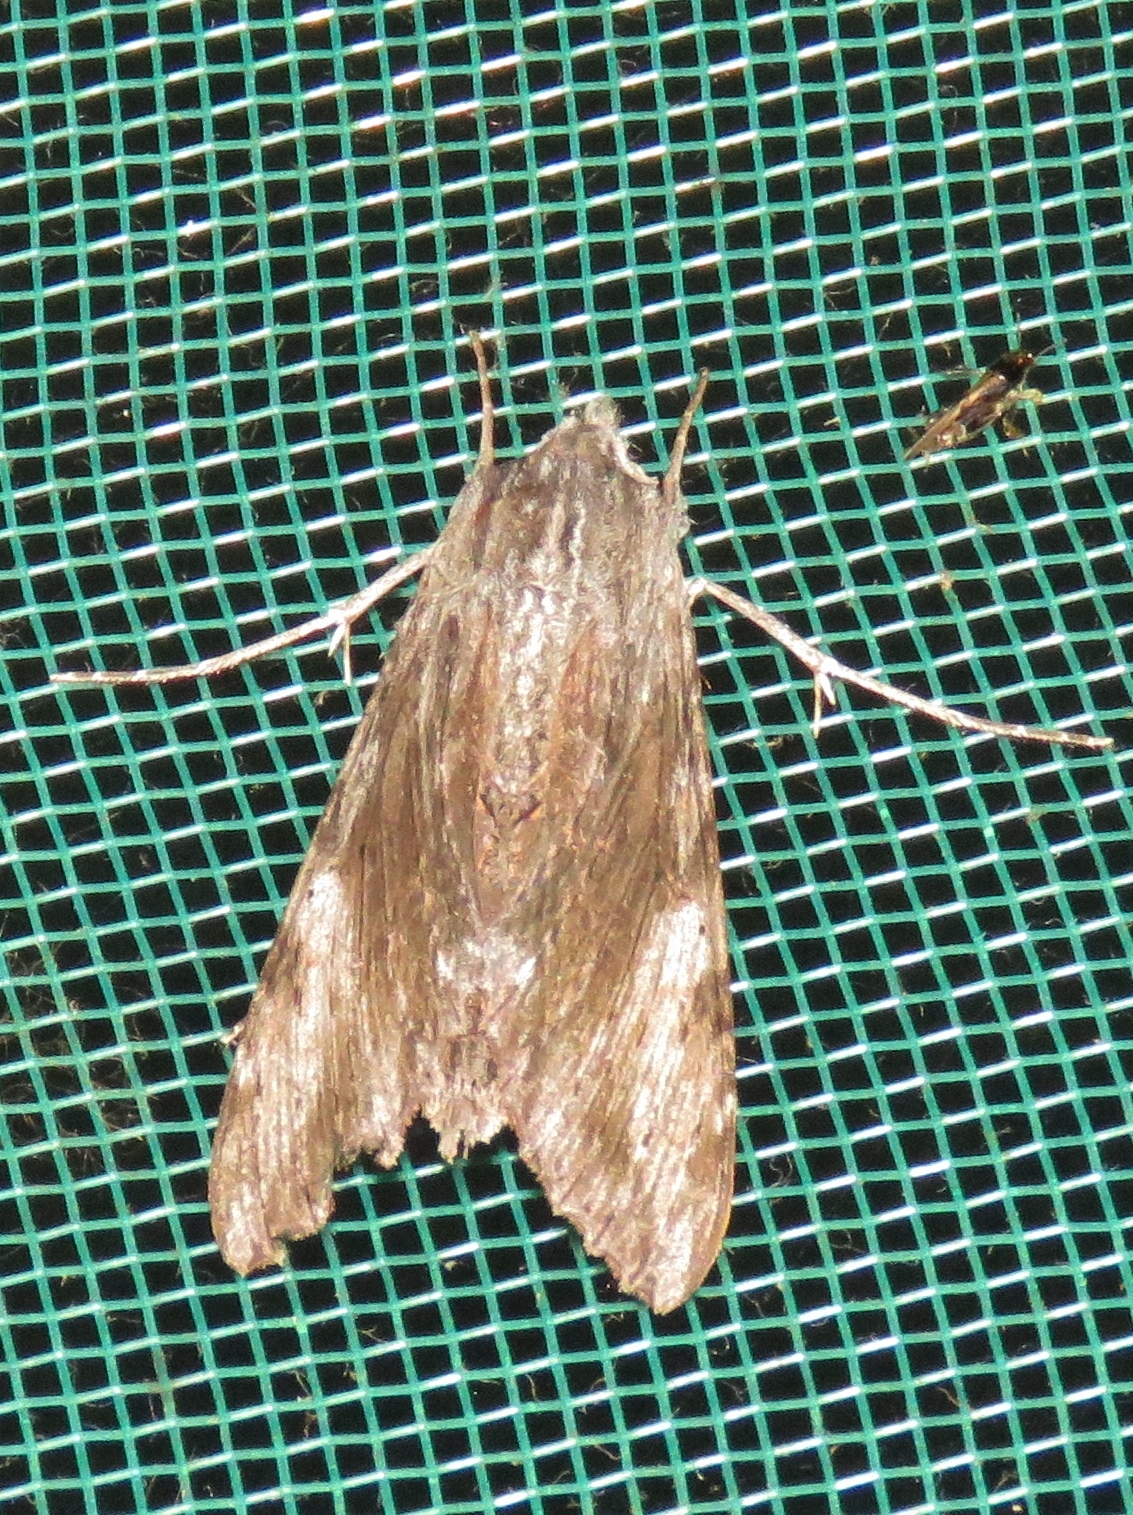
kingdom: Animalia
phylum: Arthropoda
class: Insecta
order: Lepidoptera
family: Sphingidae
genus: Erinnyis
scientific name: Erinnyis obscura
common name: Obscure sphinx
